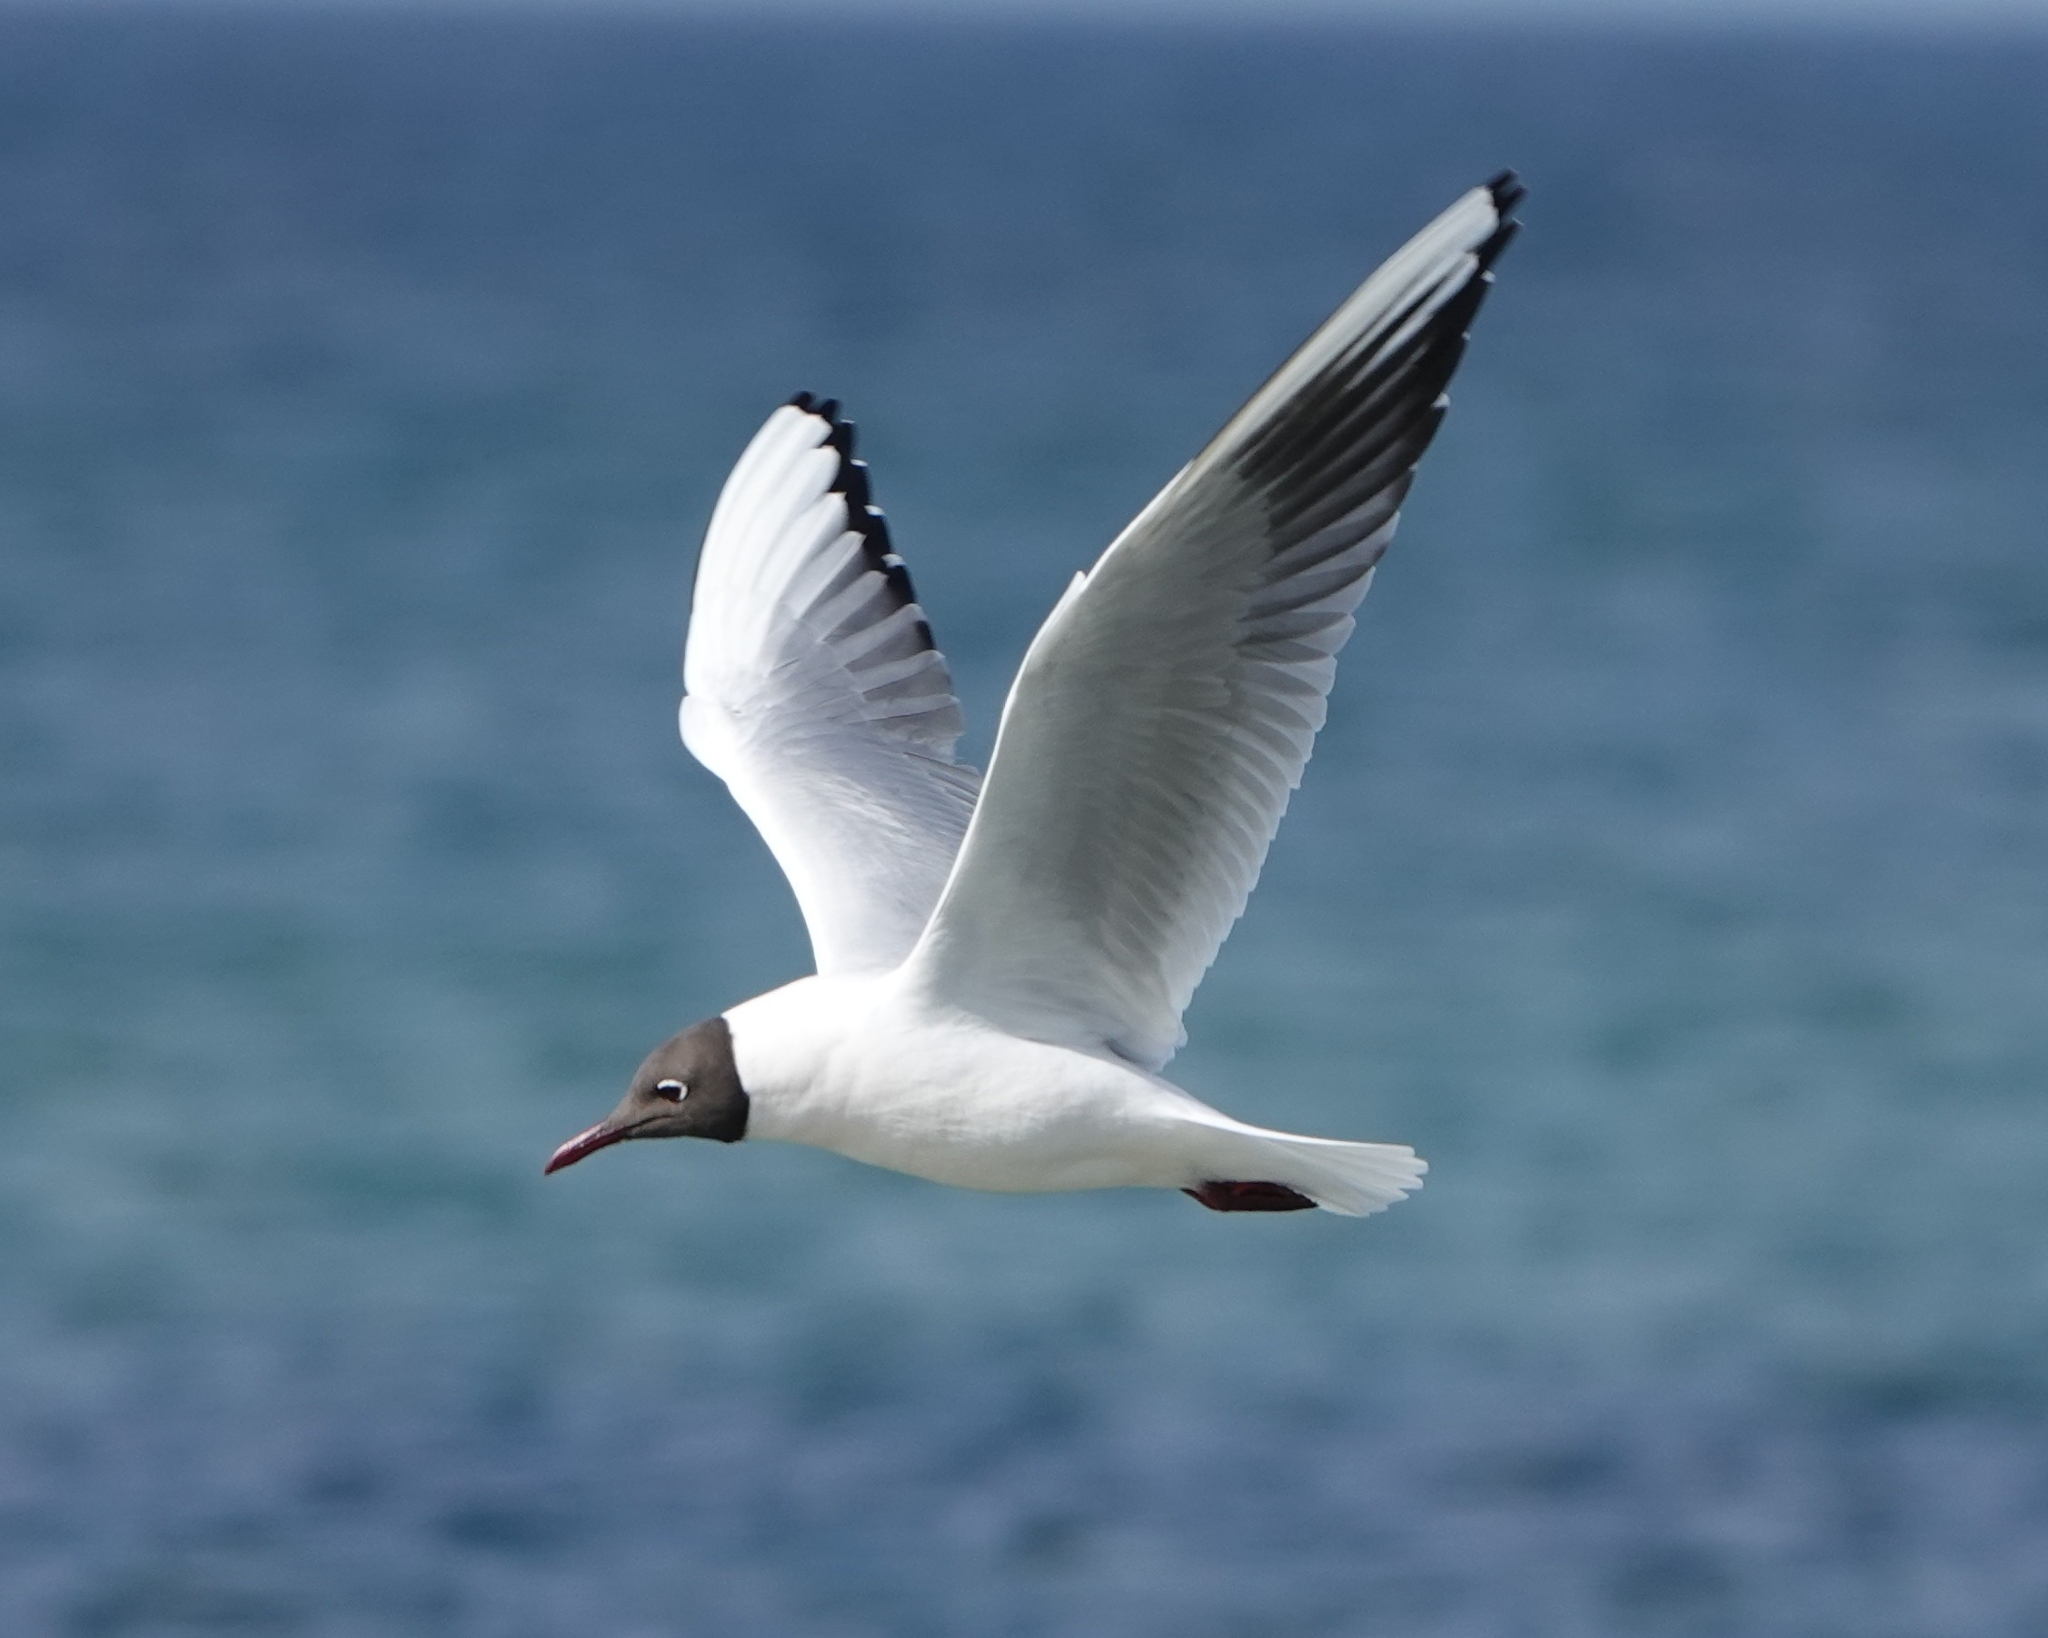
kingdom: Animalia
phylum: Chordata
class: Aves
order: Charadriiformes
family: Laridae
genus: Chroicocephalus
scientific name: Chroicocephalus ridibundus
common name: Black-headed gull
